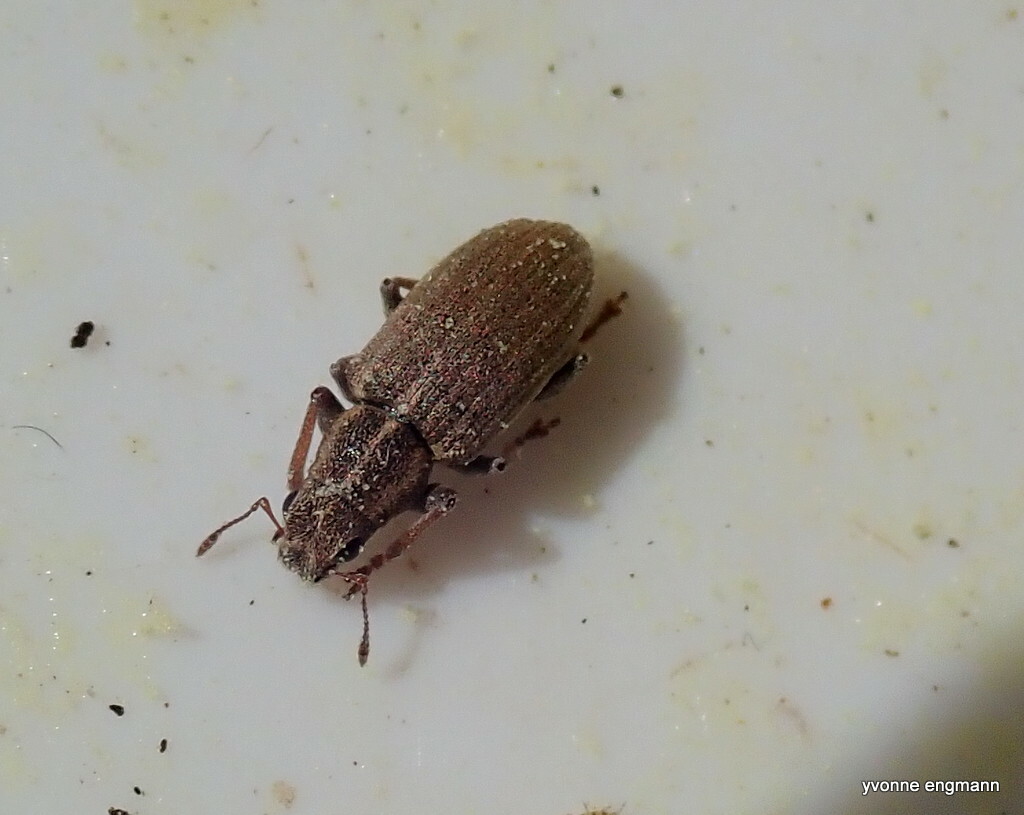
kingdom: Animalia
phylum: Arthropoda
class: Insecta
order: Coleoptera
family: Curculionidae
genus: Sitona
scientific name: Sitona lineatus
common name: Weevil
